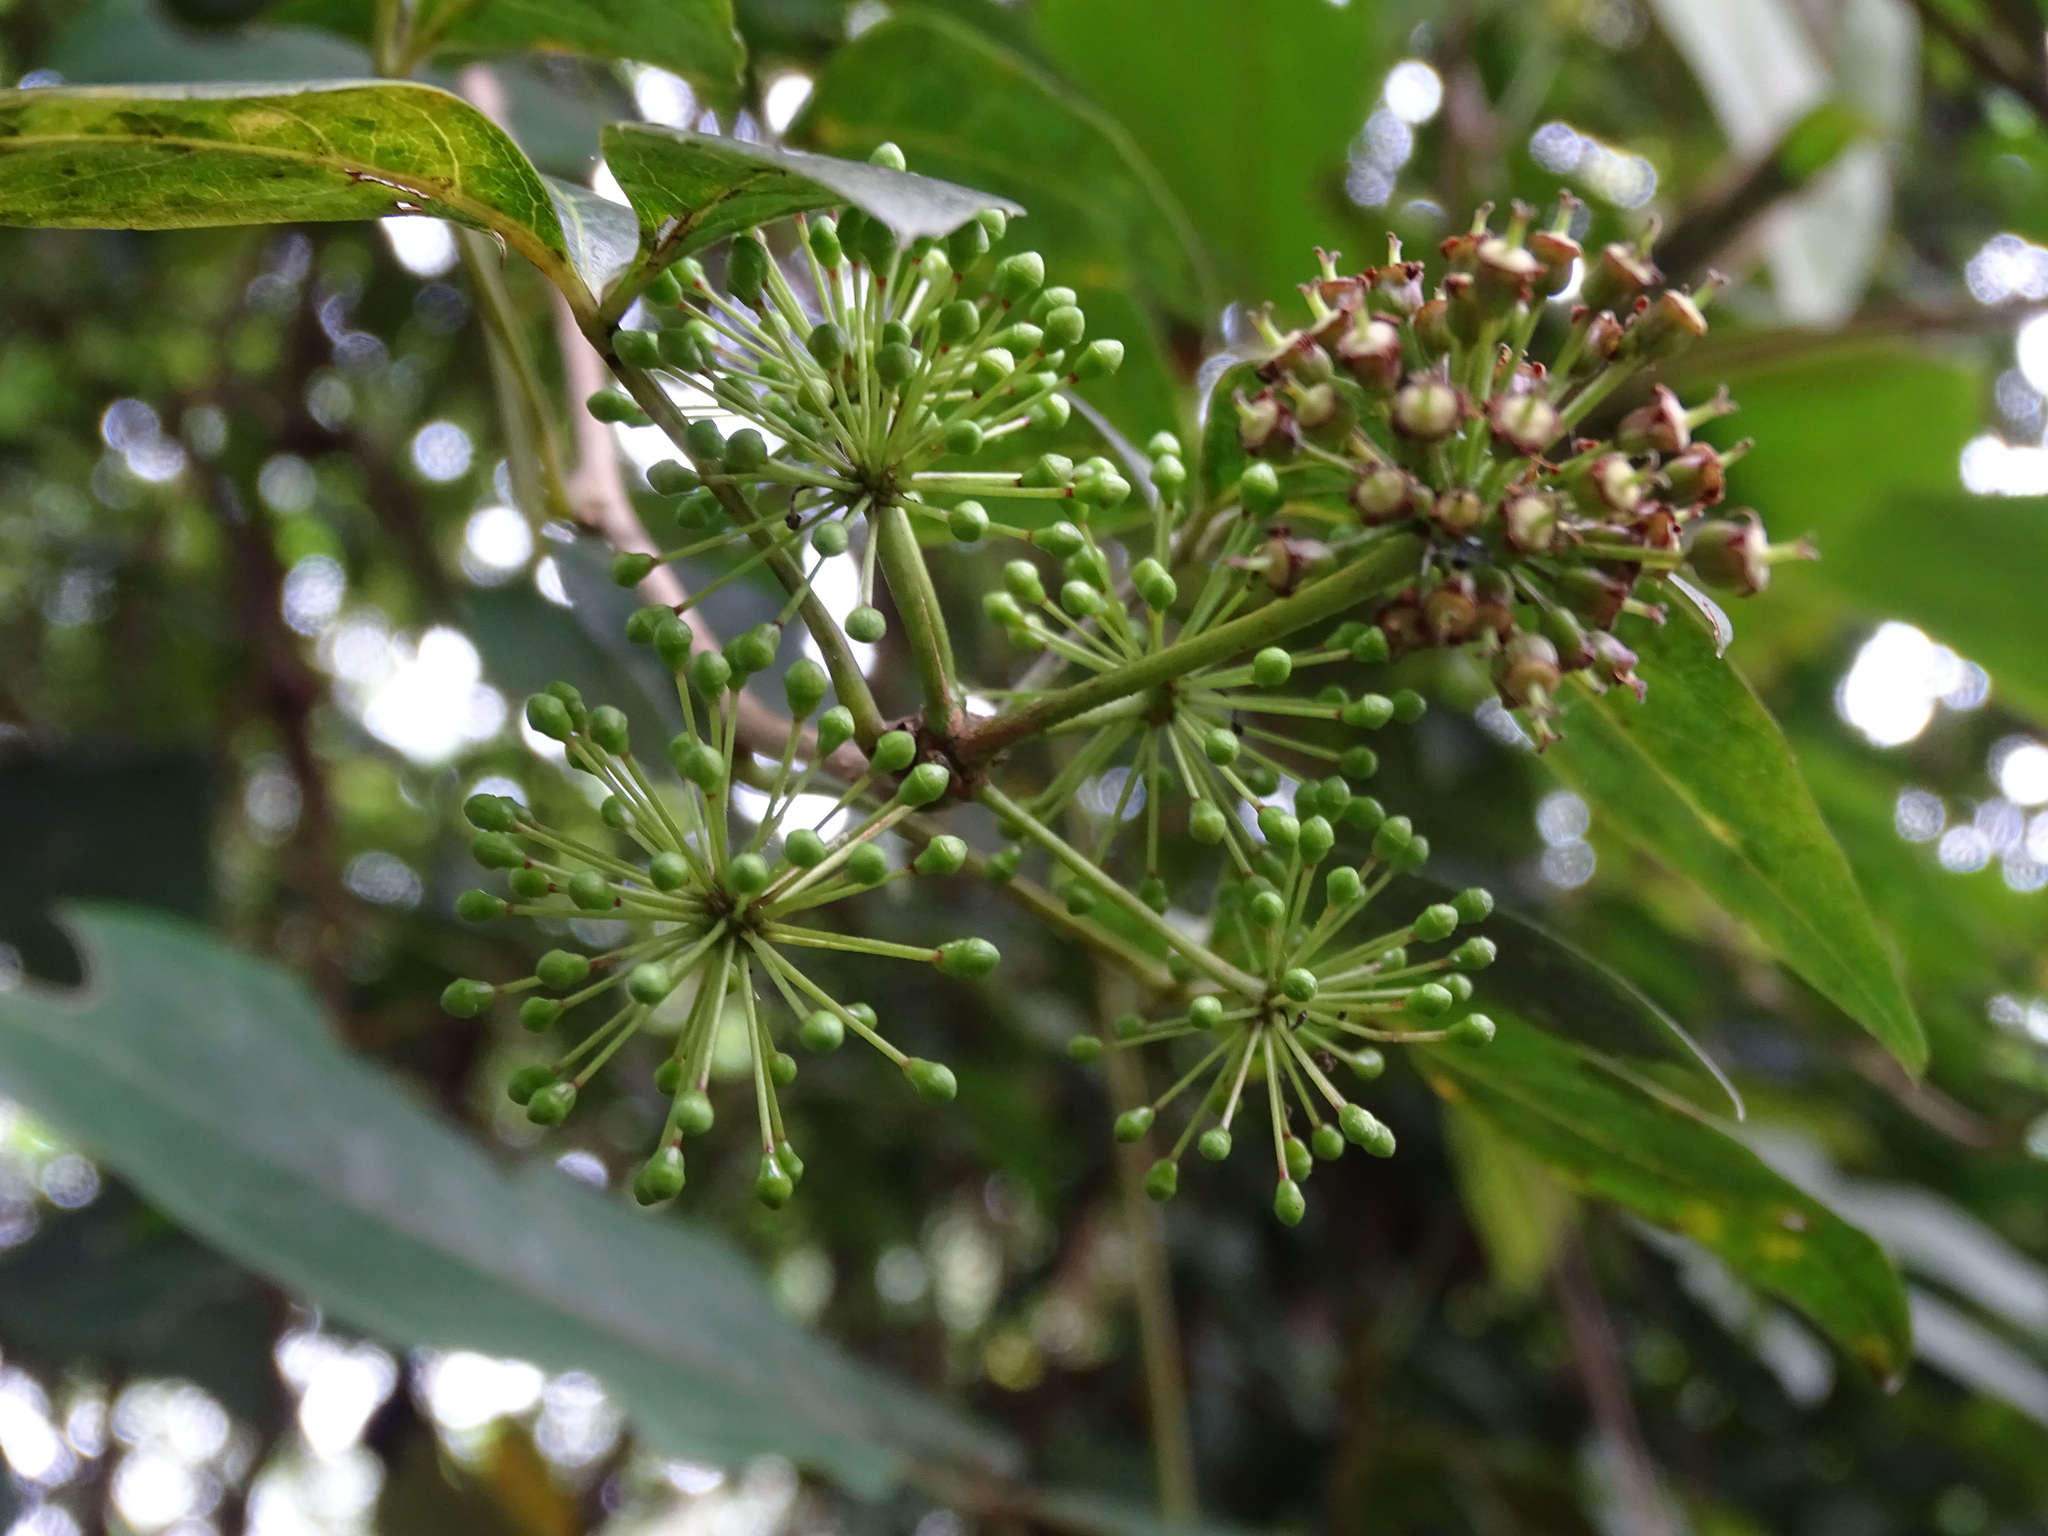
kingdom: Plantae
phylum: Tracheophyta
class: Magnoliopsida
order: Apiales
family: Araliaceae
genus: Eleutherococcus
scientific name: Eleutherococcus trifoliatus
